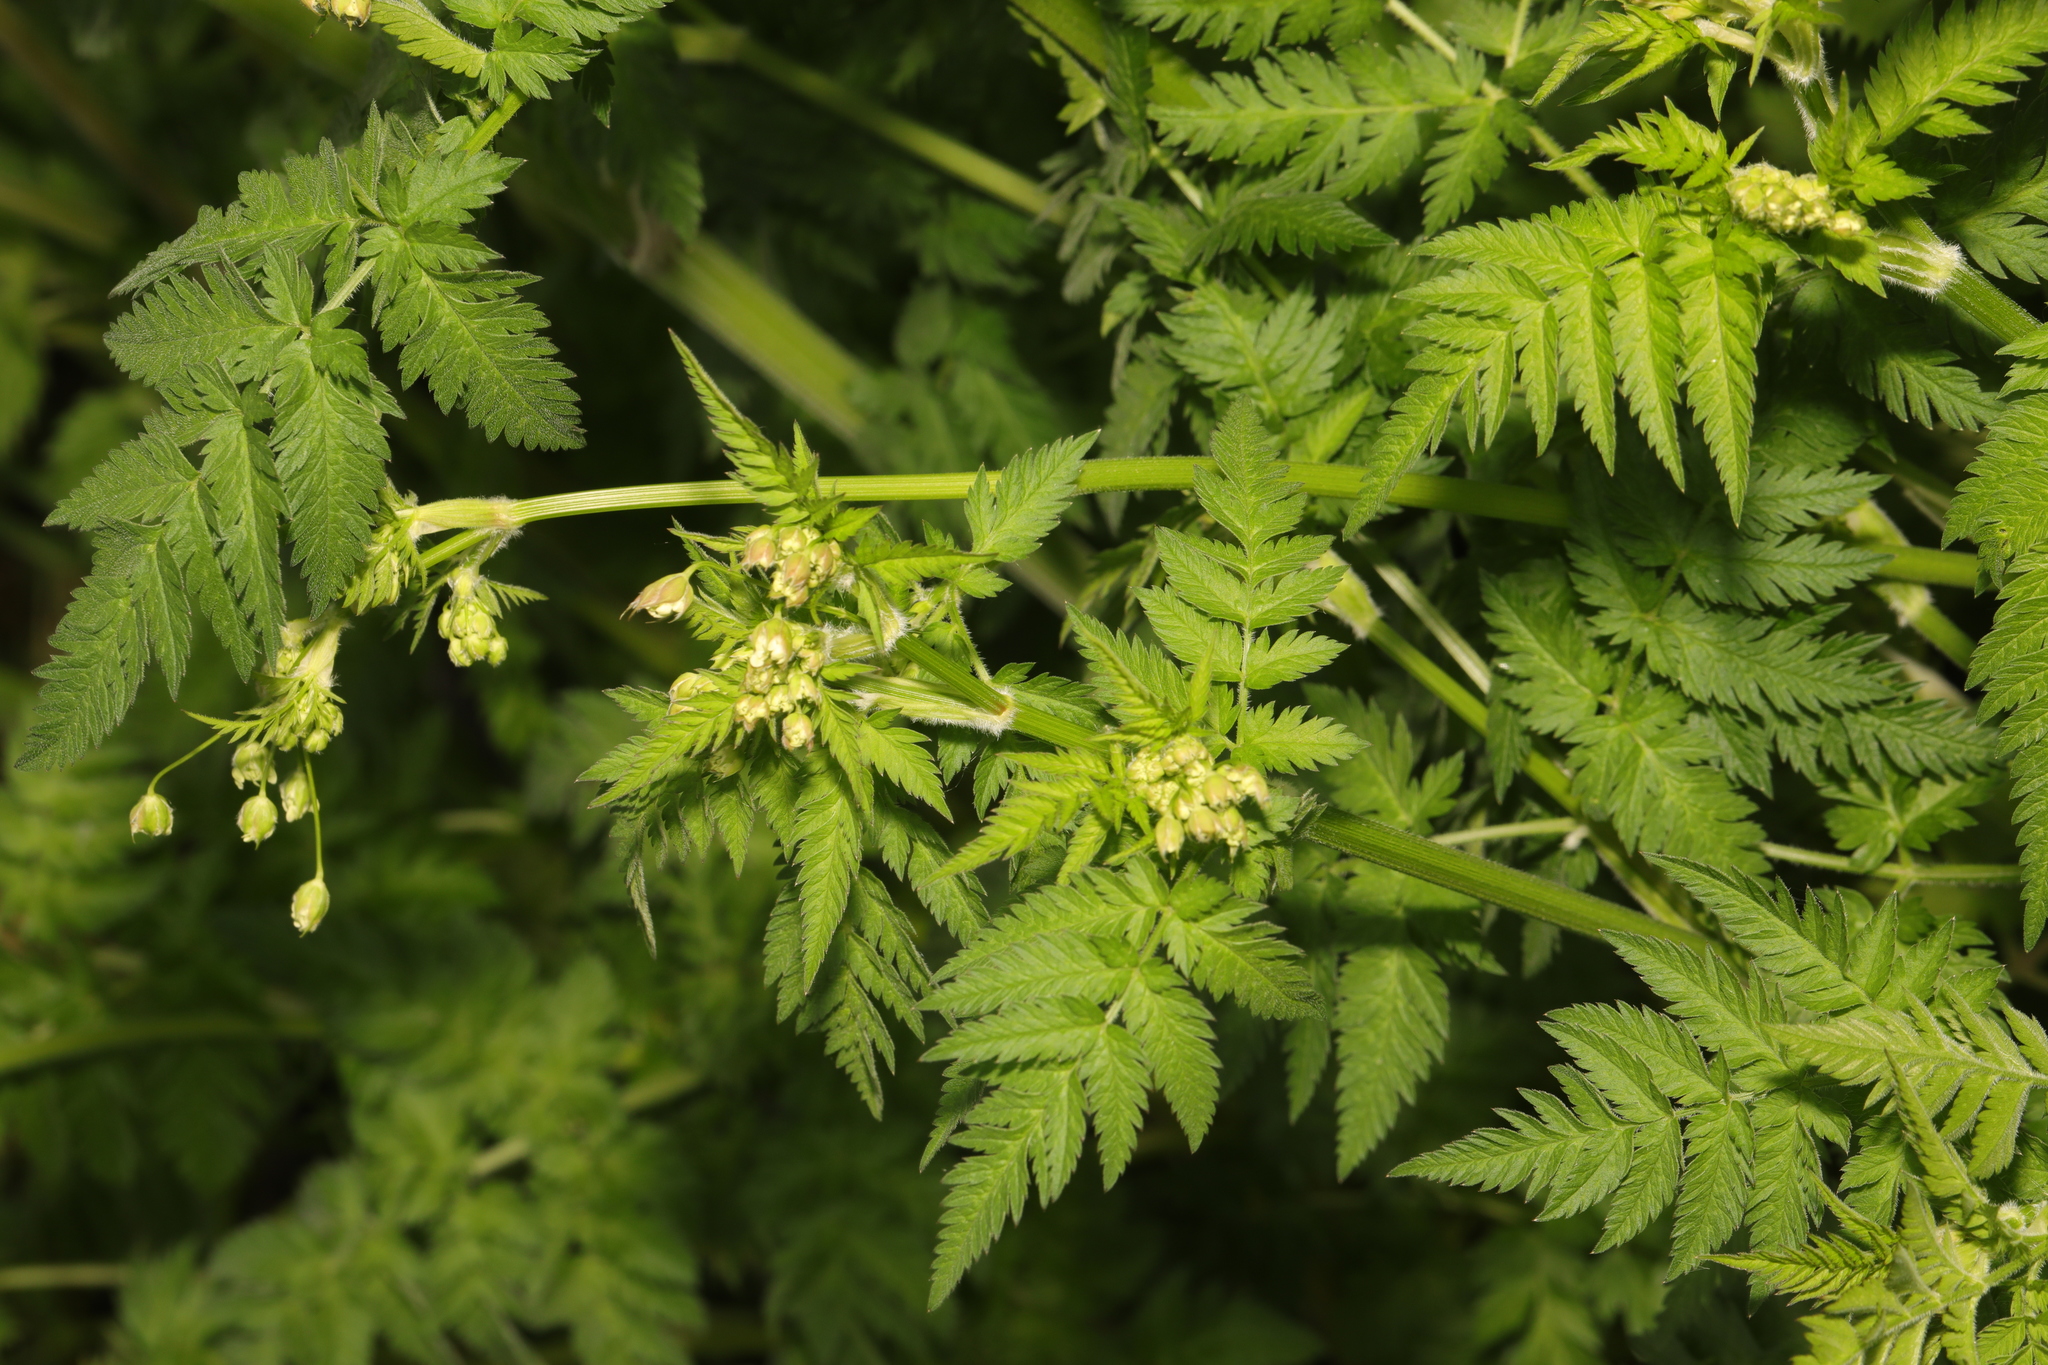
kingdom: Plantae
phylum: Tracheophyta
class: Magnoliopsida
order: Apiales
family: Apiaceae
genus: Anthriscus
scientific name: Anthriscus sylvestris
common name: Cow parsley
